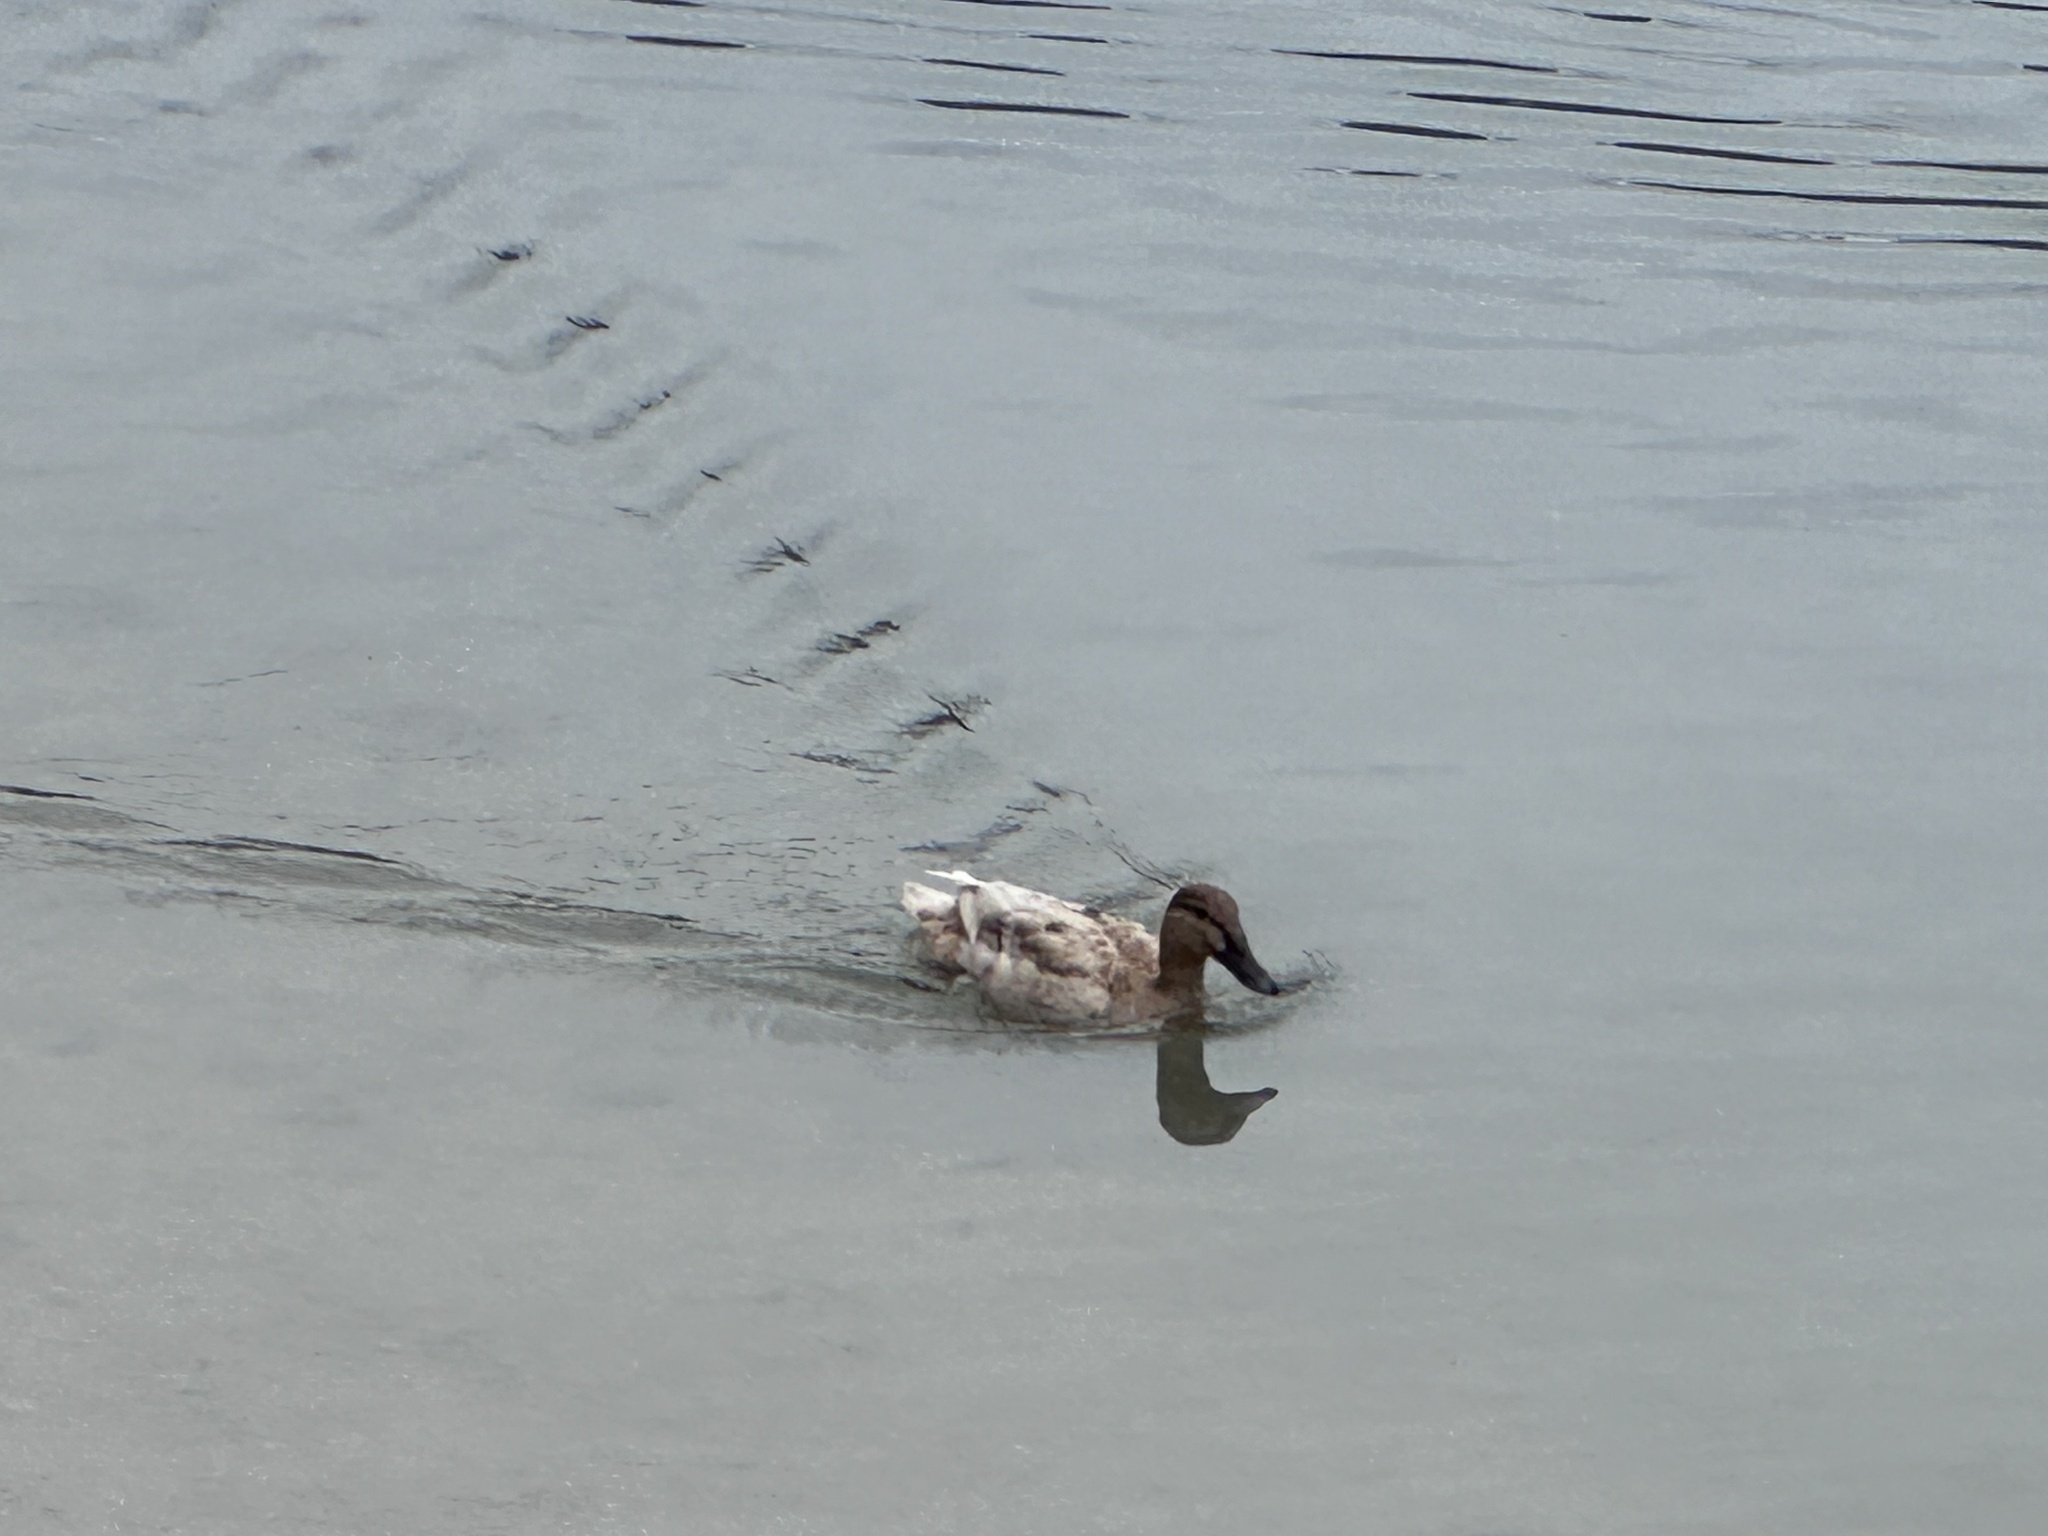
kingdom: Animalia
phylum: Chordata
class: Aves
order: Anseriformes
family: Anatidae
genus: Anas
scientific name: Anas platyrhynchos
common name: Mallard
